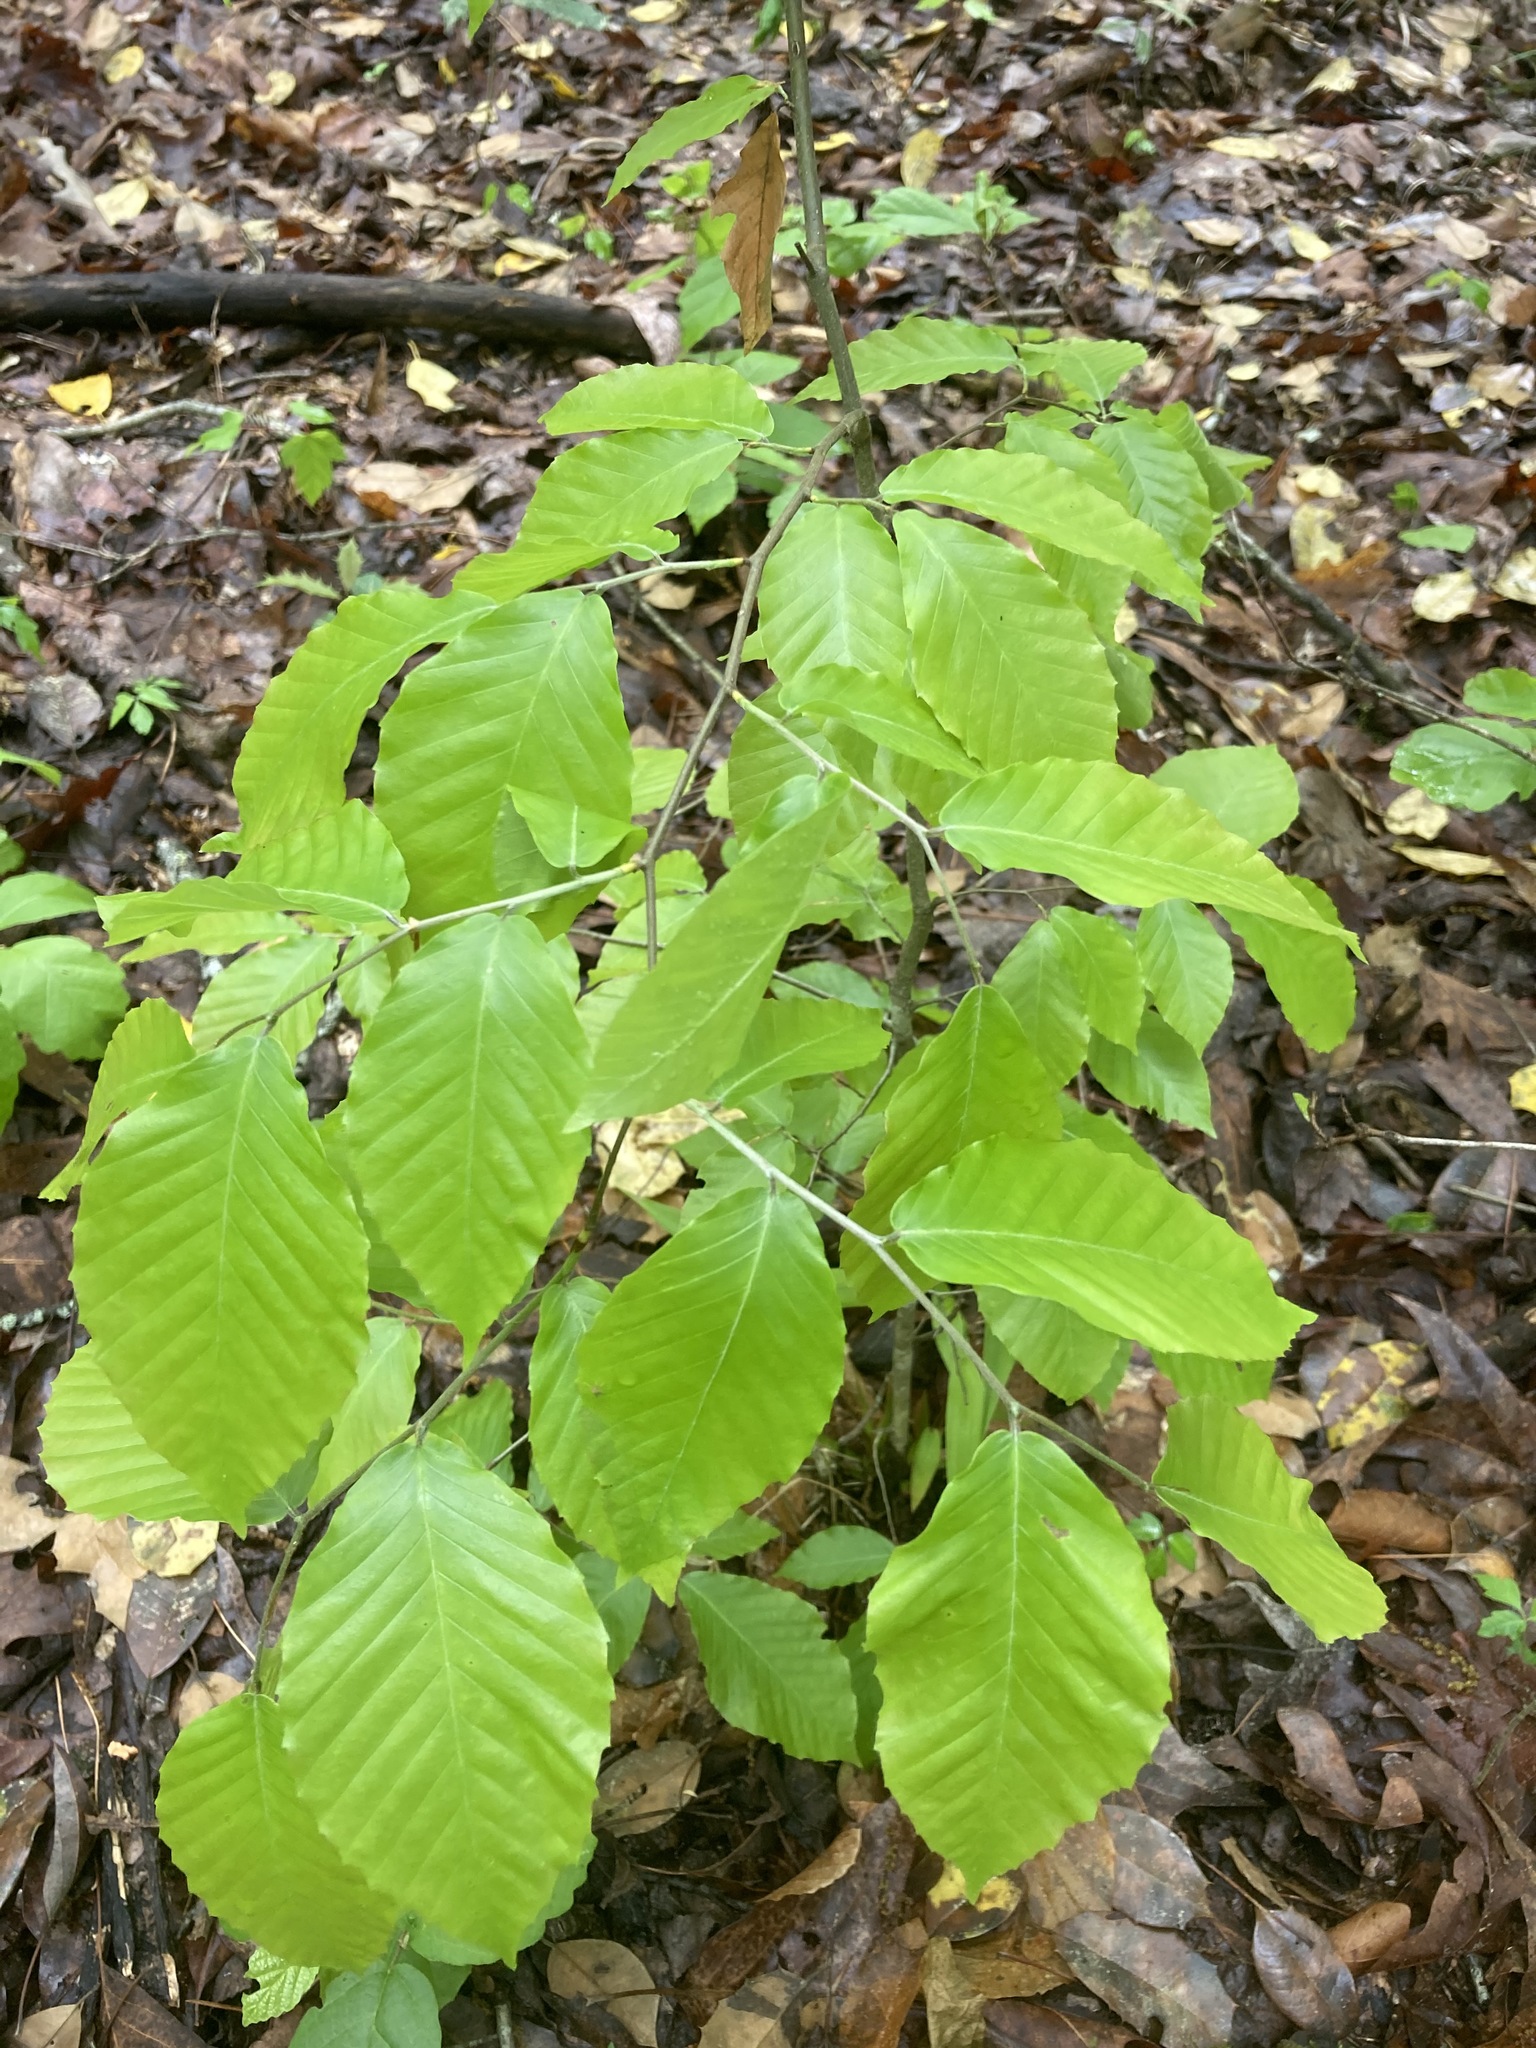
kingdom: Plantae
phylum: Tracheophyta
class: Magnoliopsida
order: Fagales
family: Fagaceae
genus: Fagus
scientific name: Fagus grandifolia
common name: American beech
